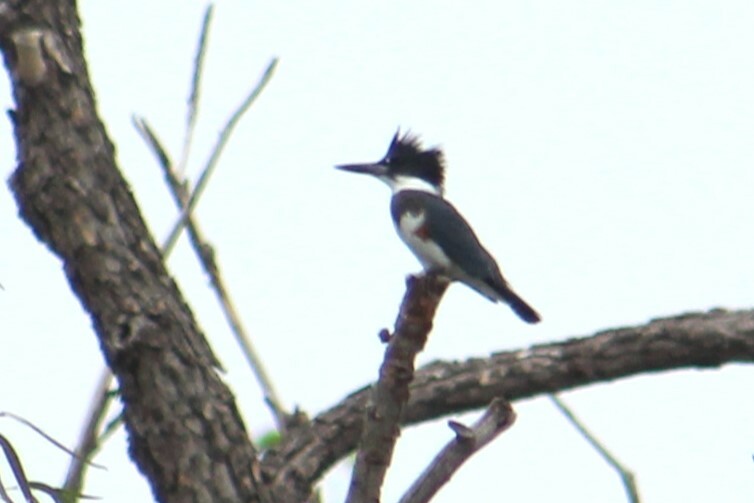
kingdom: Animalia
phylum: Chordata
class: Aves
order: Coraciiformes
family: Alcedinidae
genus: Megaceryle
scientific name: Megaceryle alcyon
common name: Belted kingfisher
